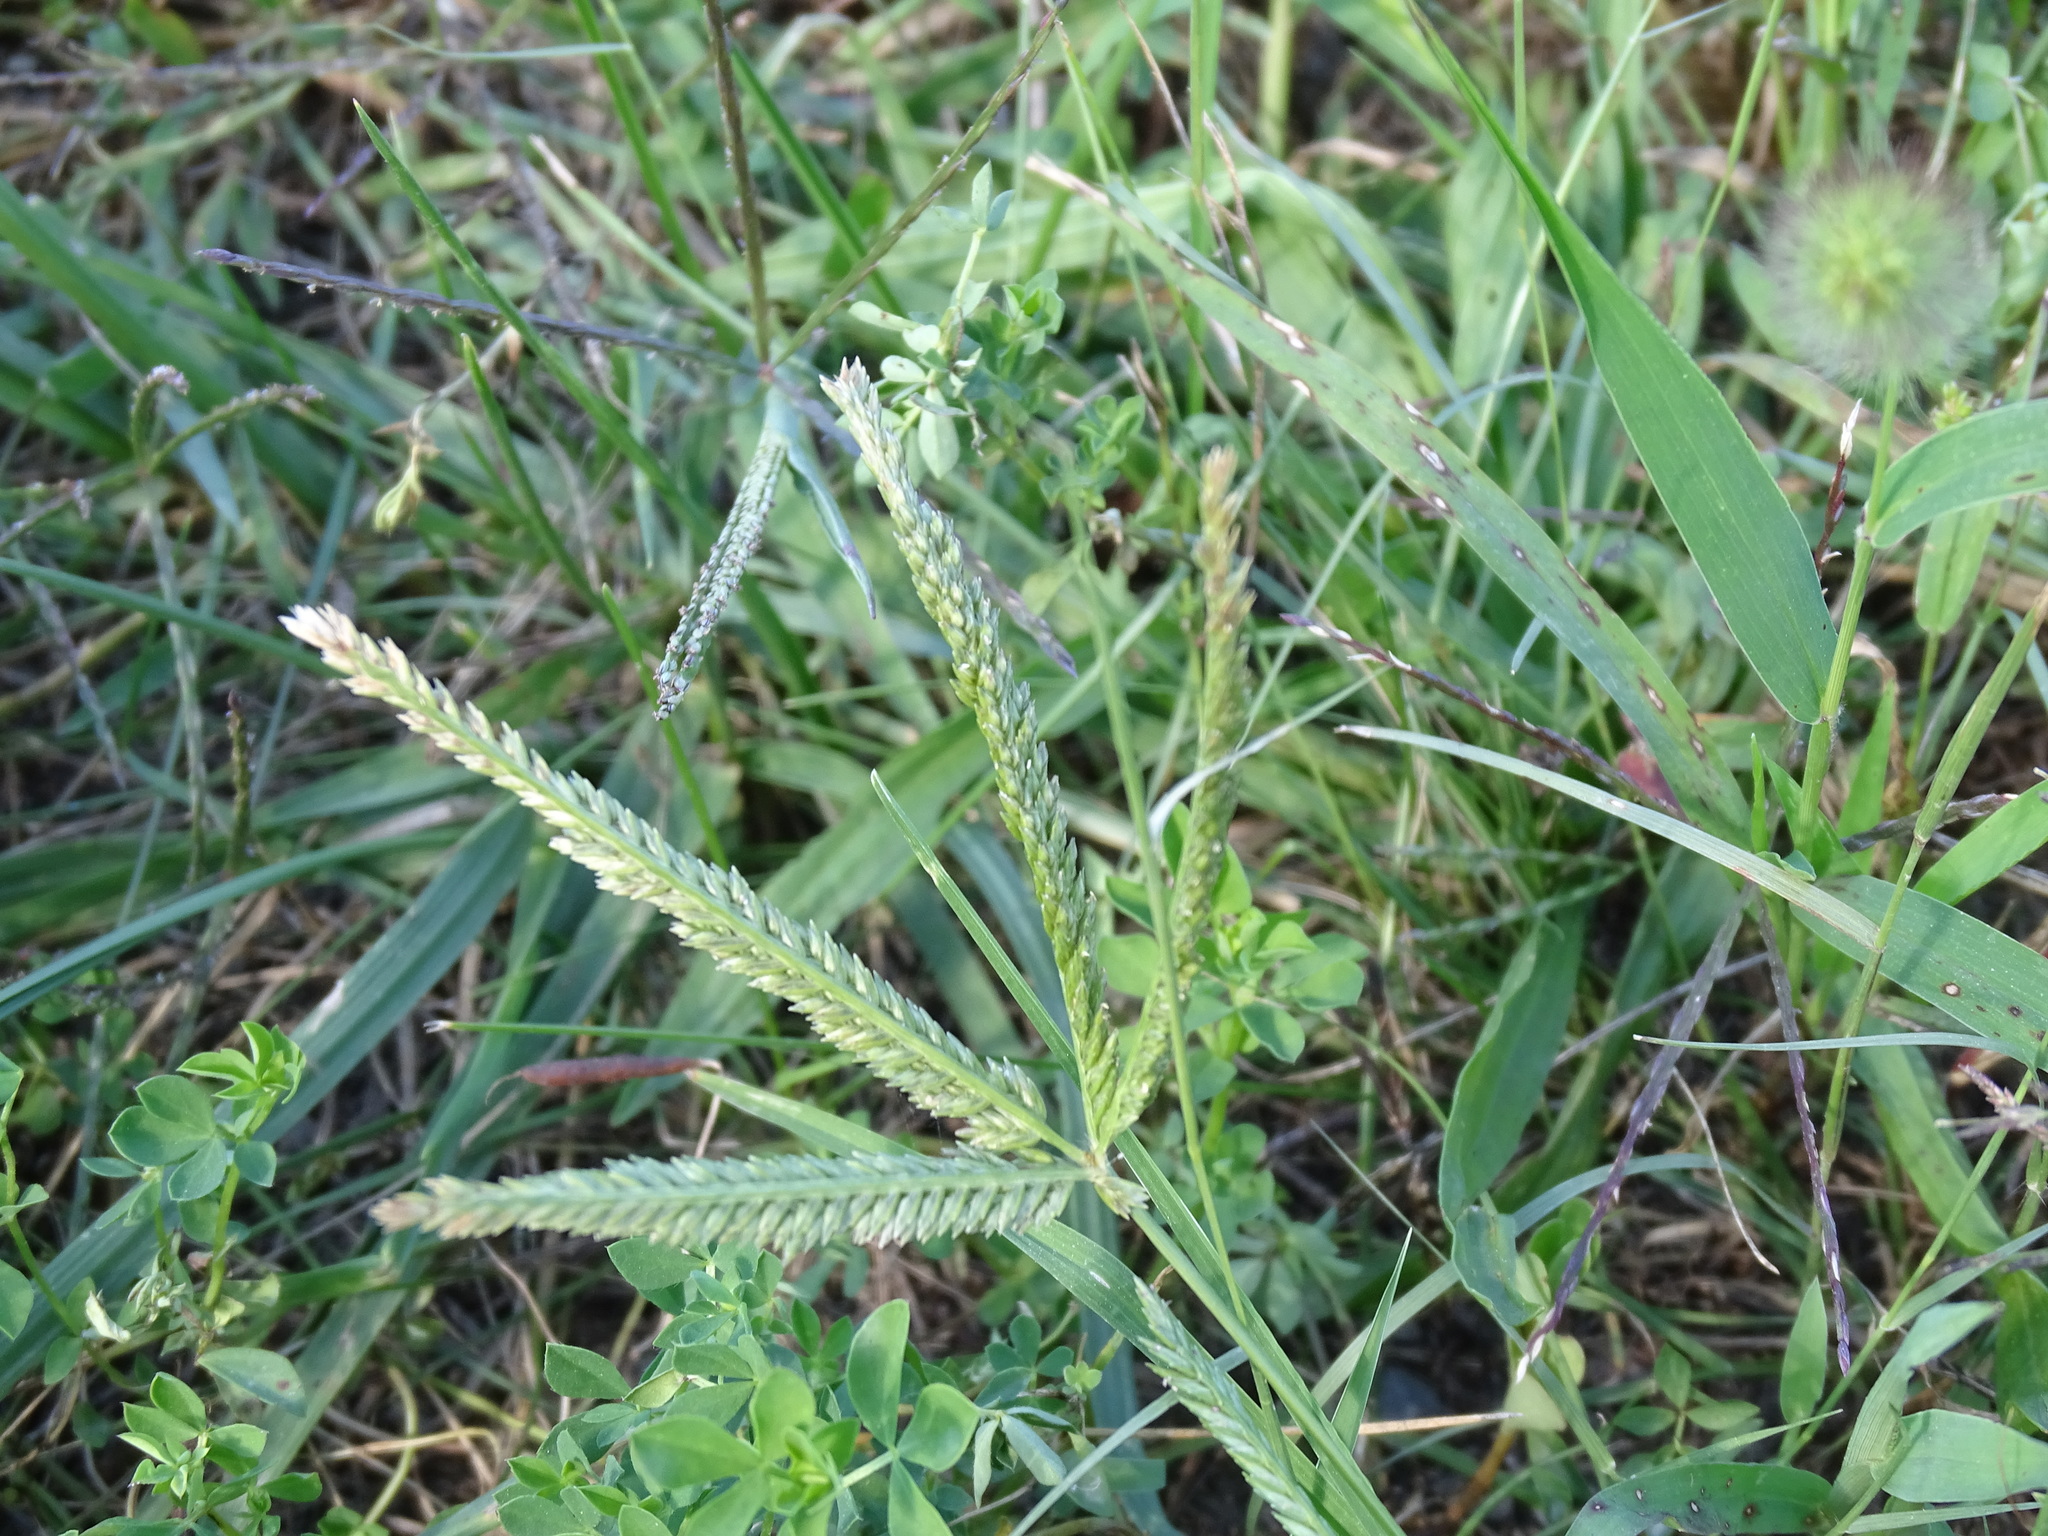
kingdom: Plantae
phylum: Tracheophyta
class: Liliopsida
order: Poales
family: Poaceae
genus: Eleusine
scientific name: Eleusine indica
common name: Yard-grass
